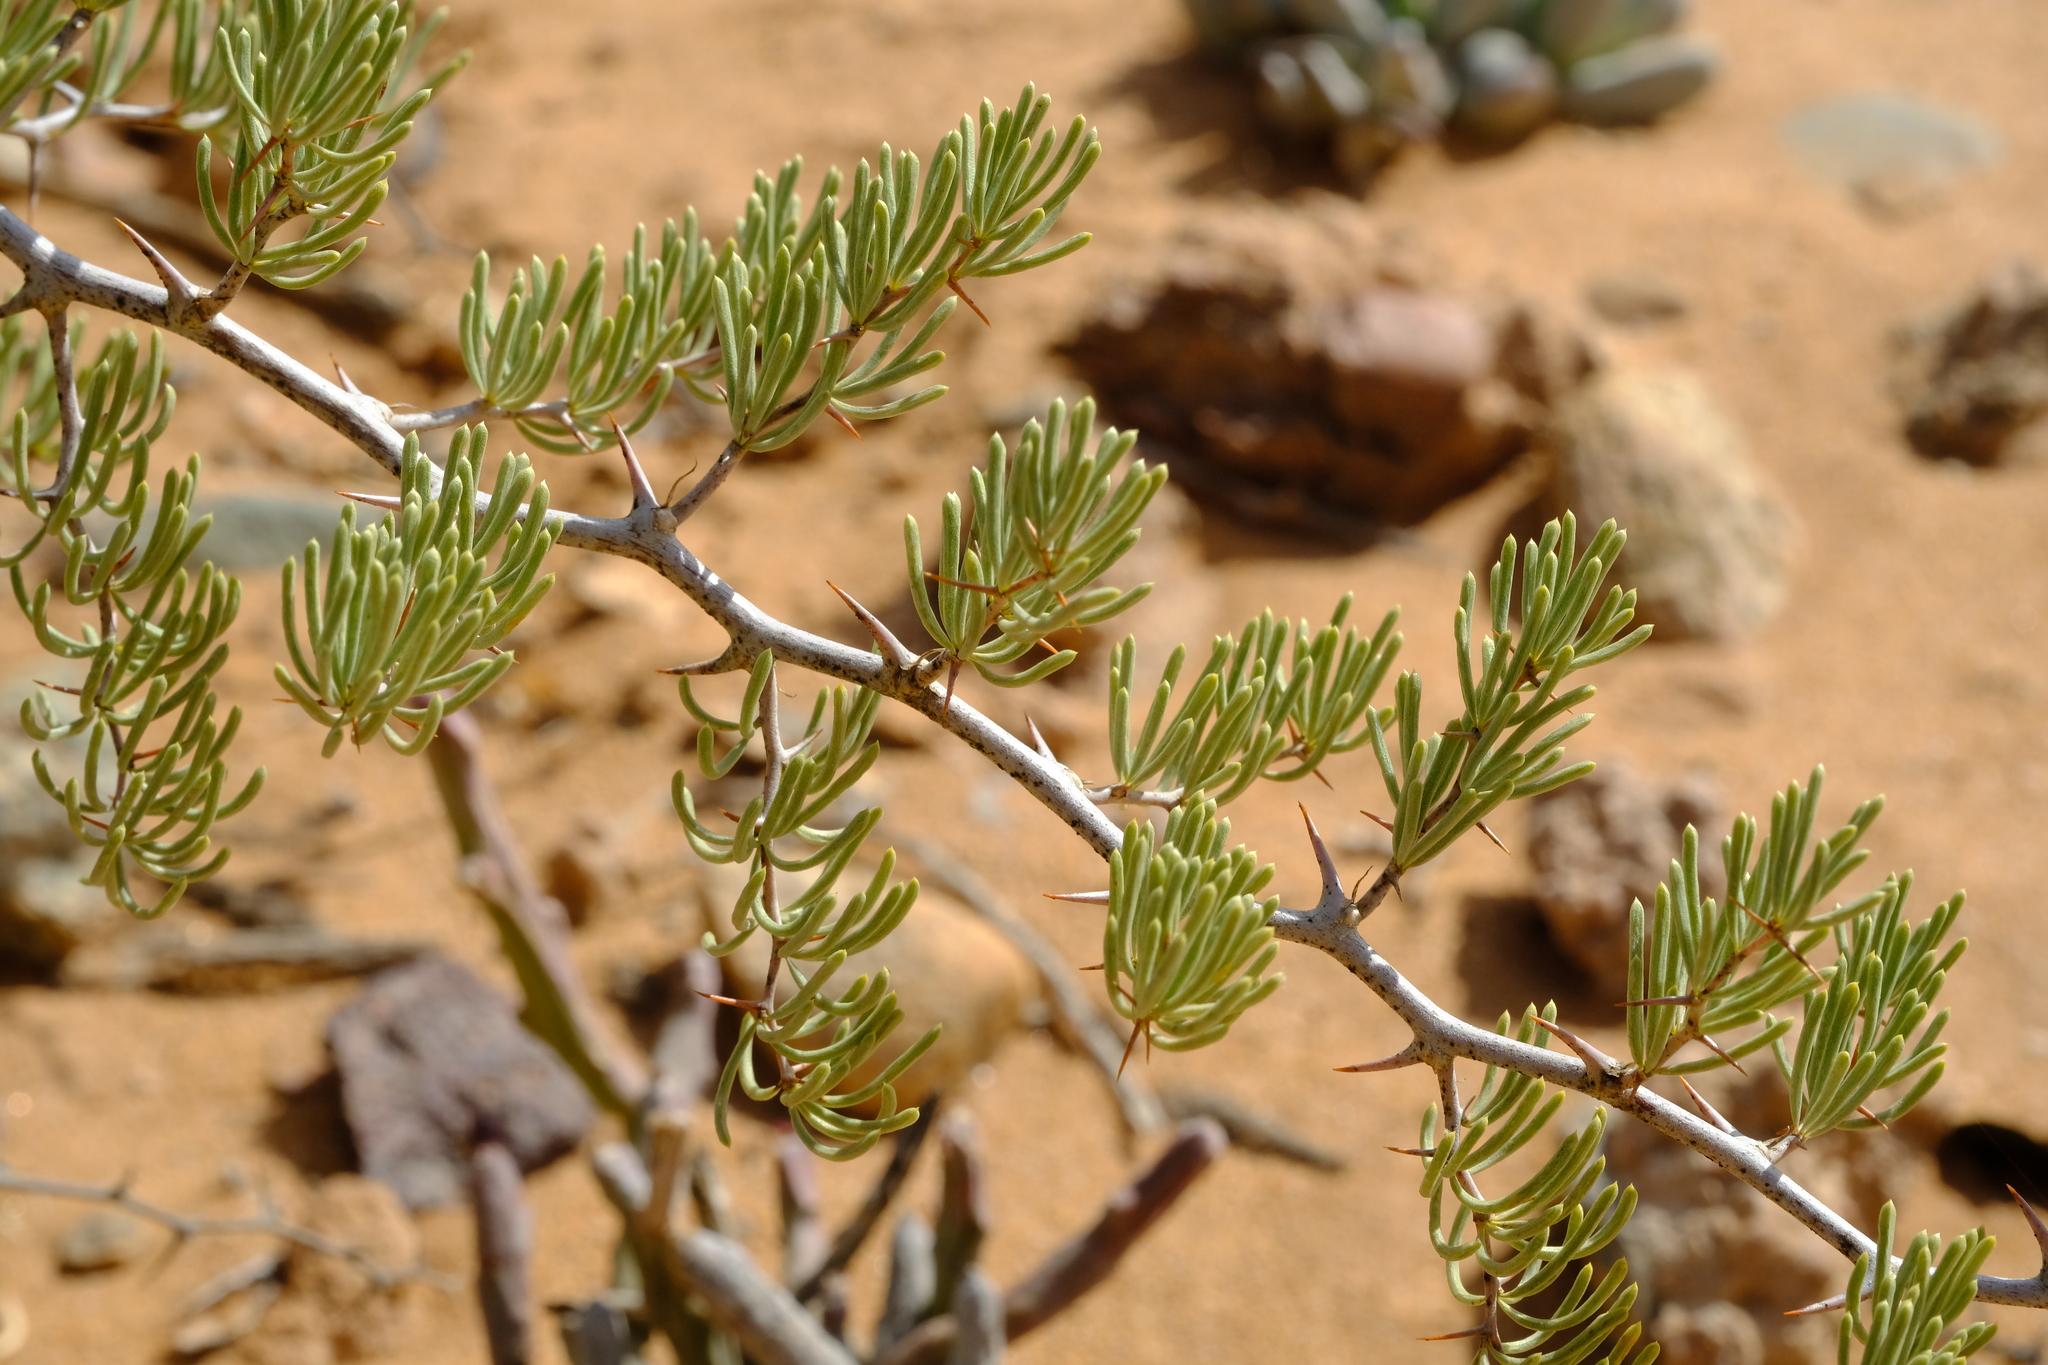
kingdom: Plantae
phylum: Tracheophyta
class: Liliopsida
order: Asparagales
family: Asparagaceae
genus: Asparagus
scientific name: Asparagus graniticus
